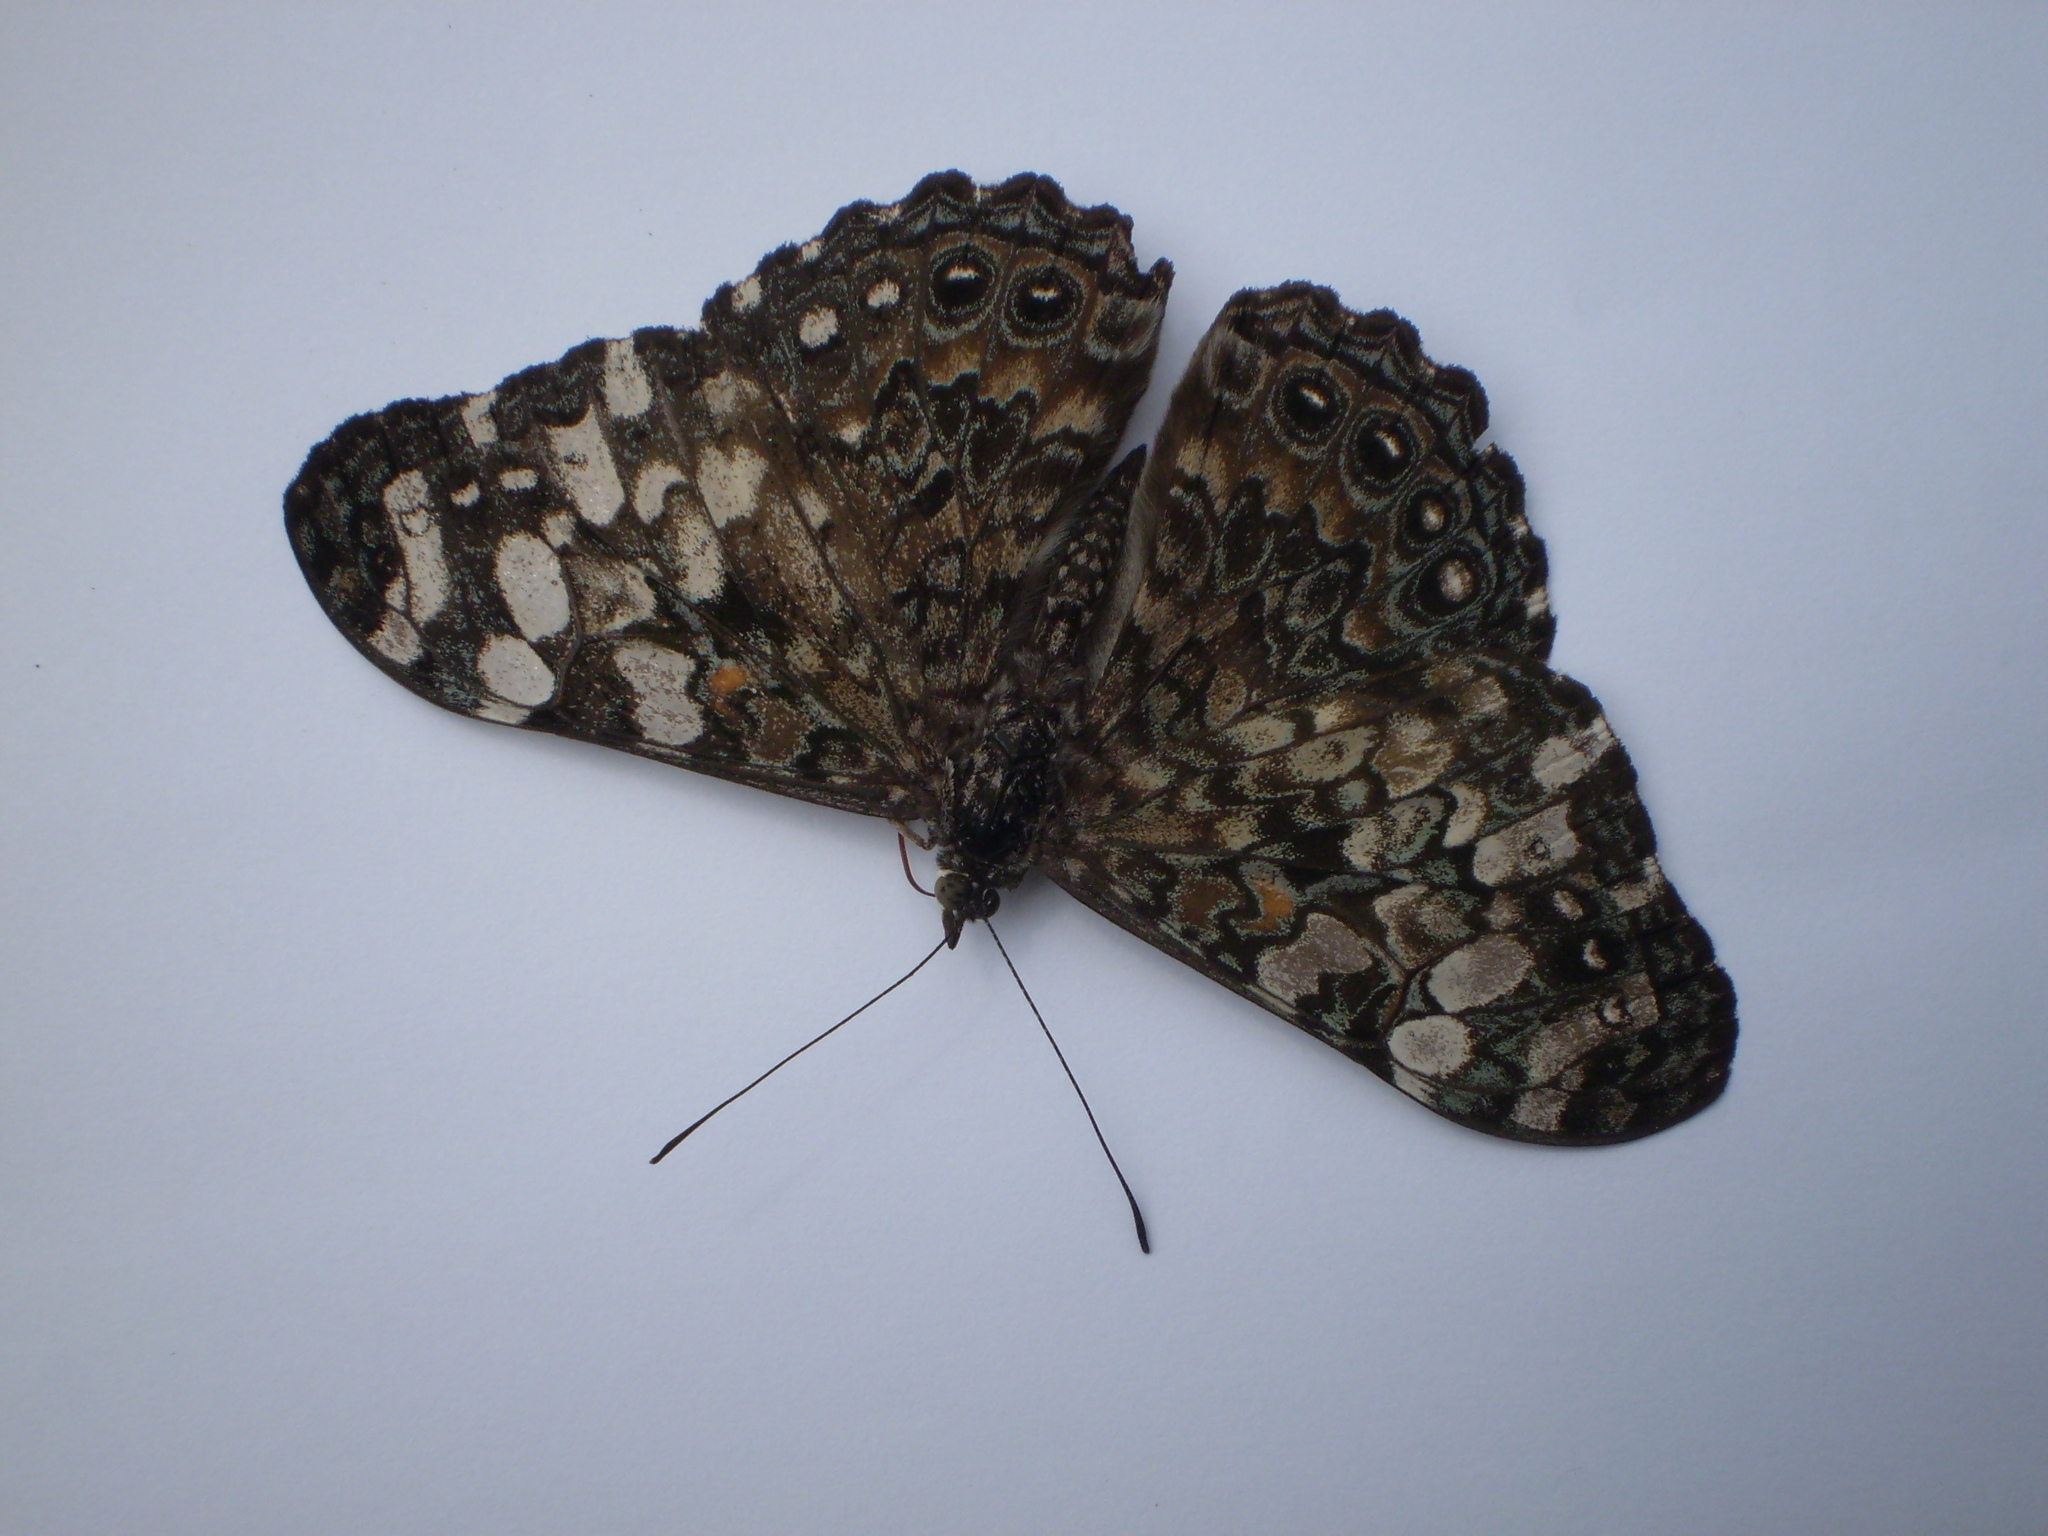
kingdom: Animalia
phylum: Arthropoda
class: Insecta
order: Lepidoptera
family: Nymphalidae
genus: Hamadryas
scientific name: Hamadryas epinome
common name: Epinome cracker
